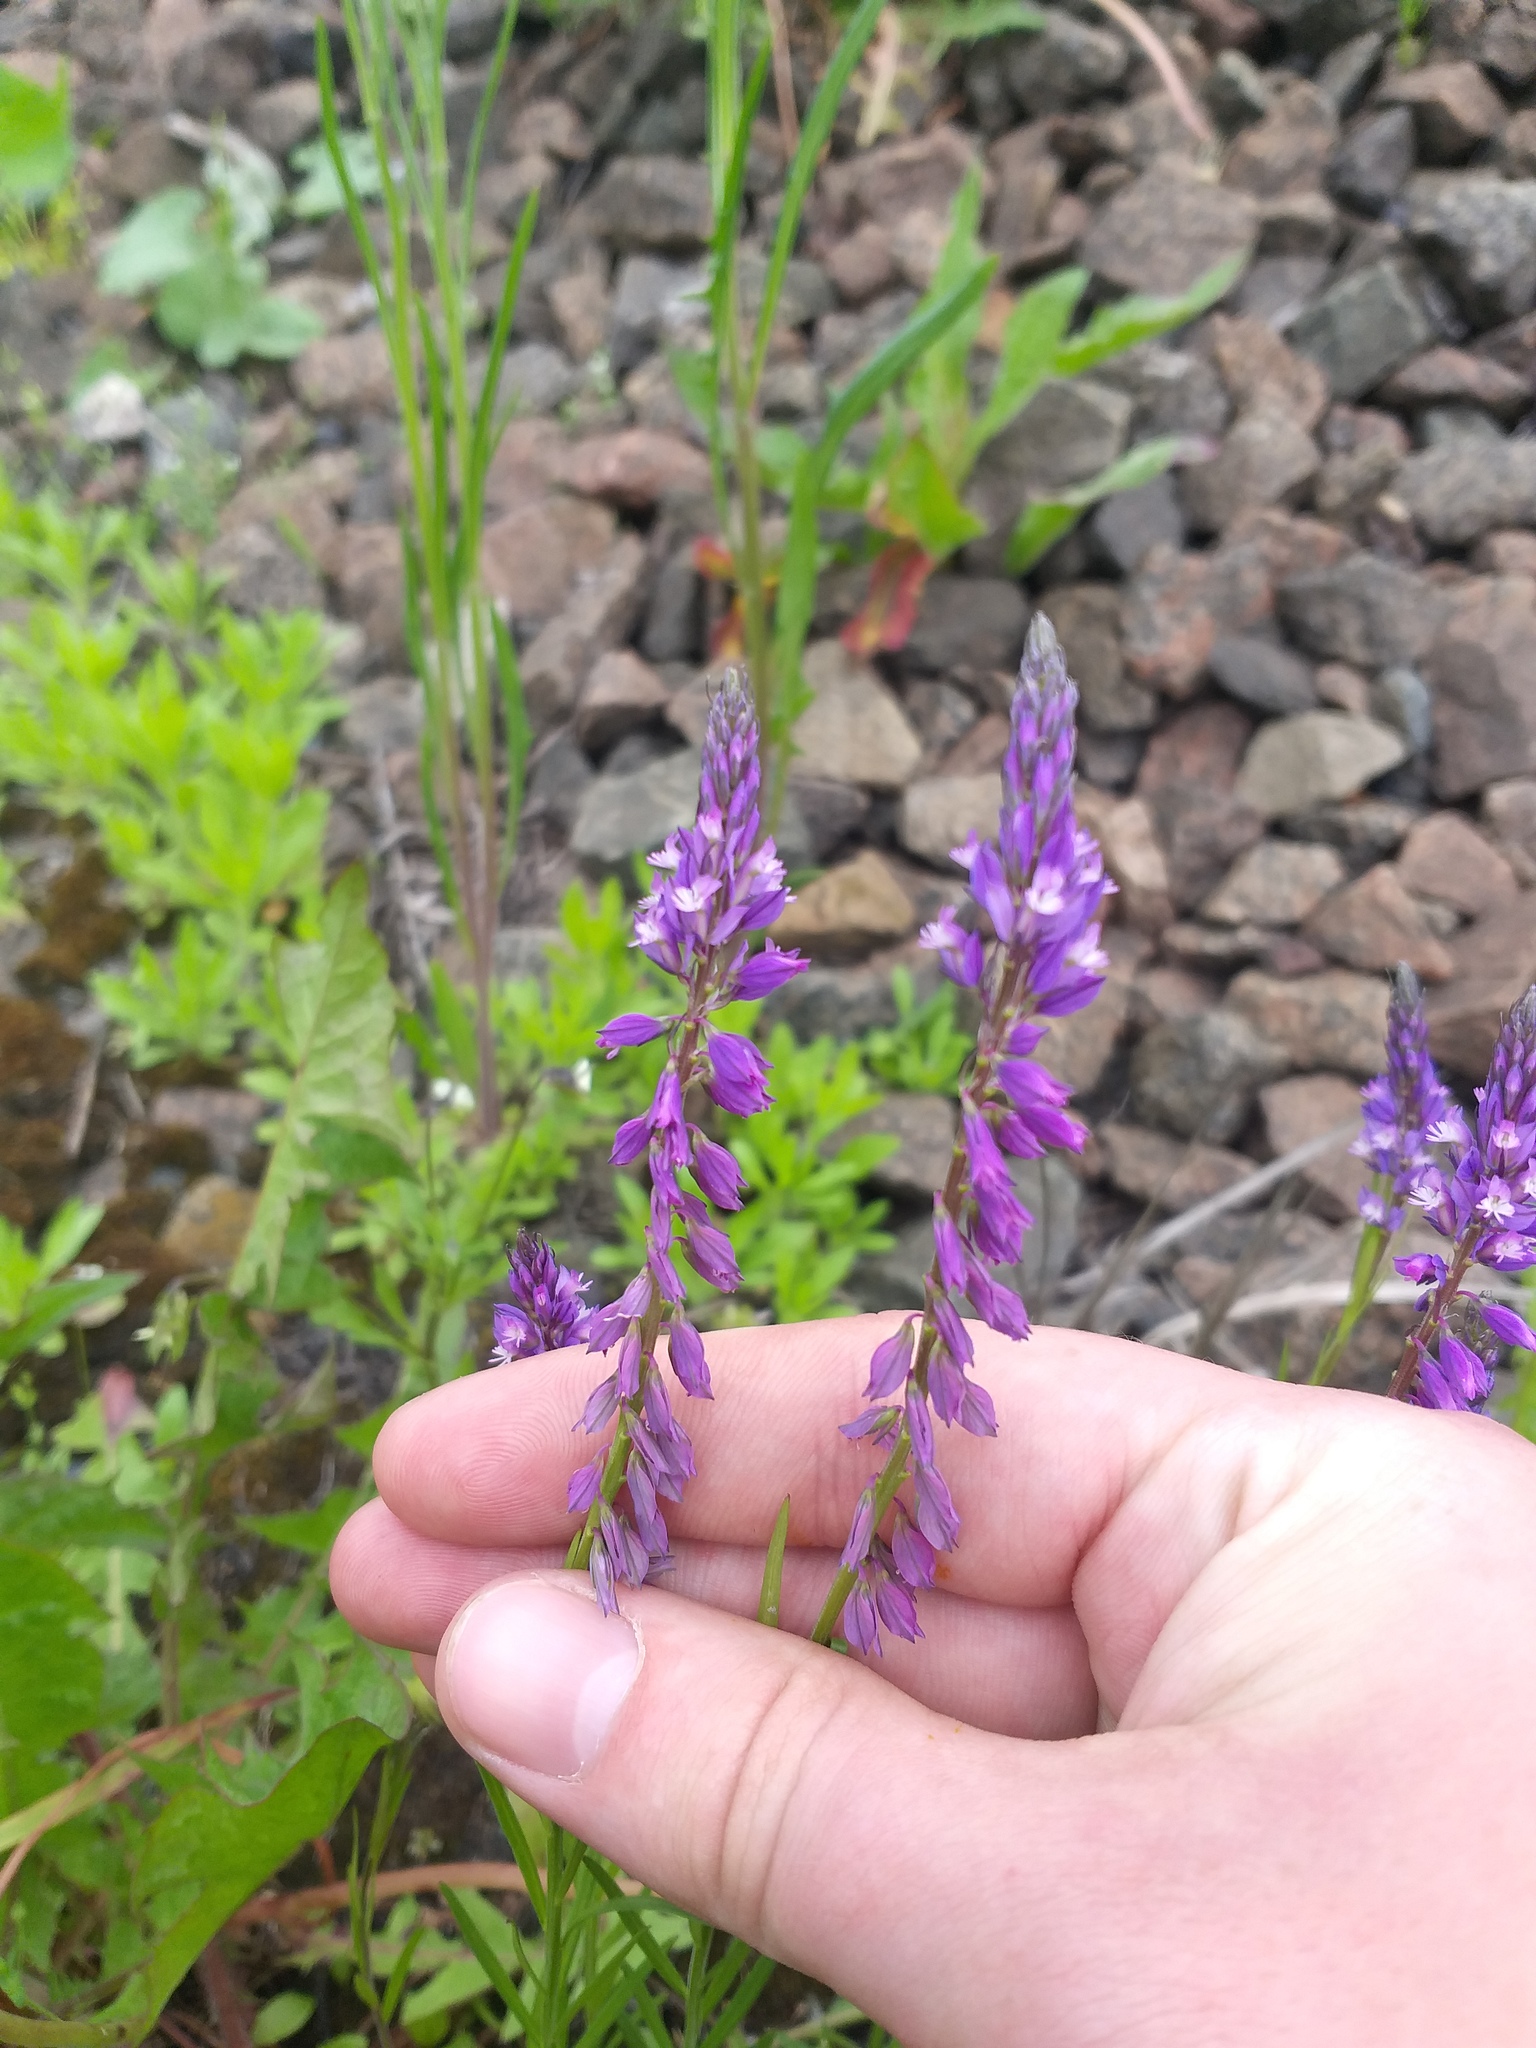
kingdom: Plantae
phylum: Tracheophyta
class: Magnoliopsida
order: Fabales
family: Polygalaceae
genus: Polygala
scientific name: Polygala comosa
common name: Tufted milkwort
